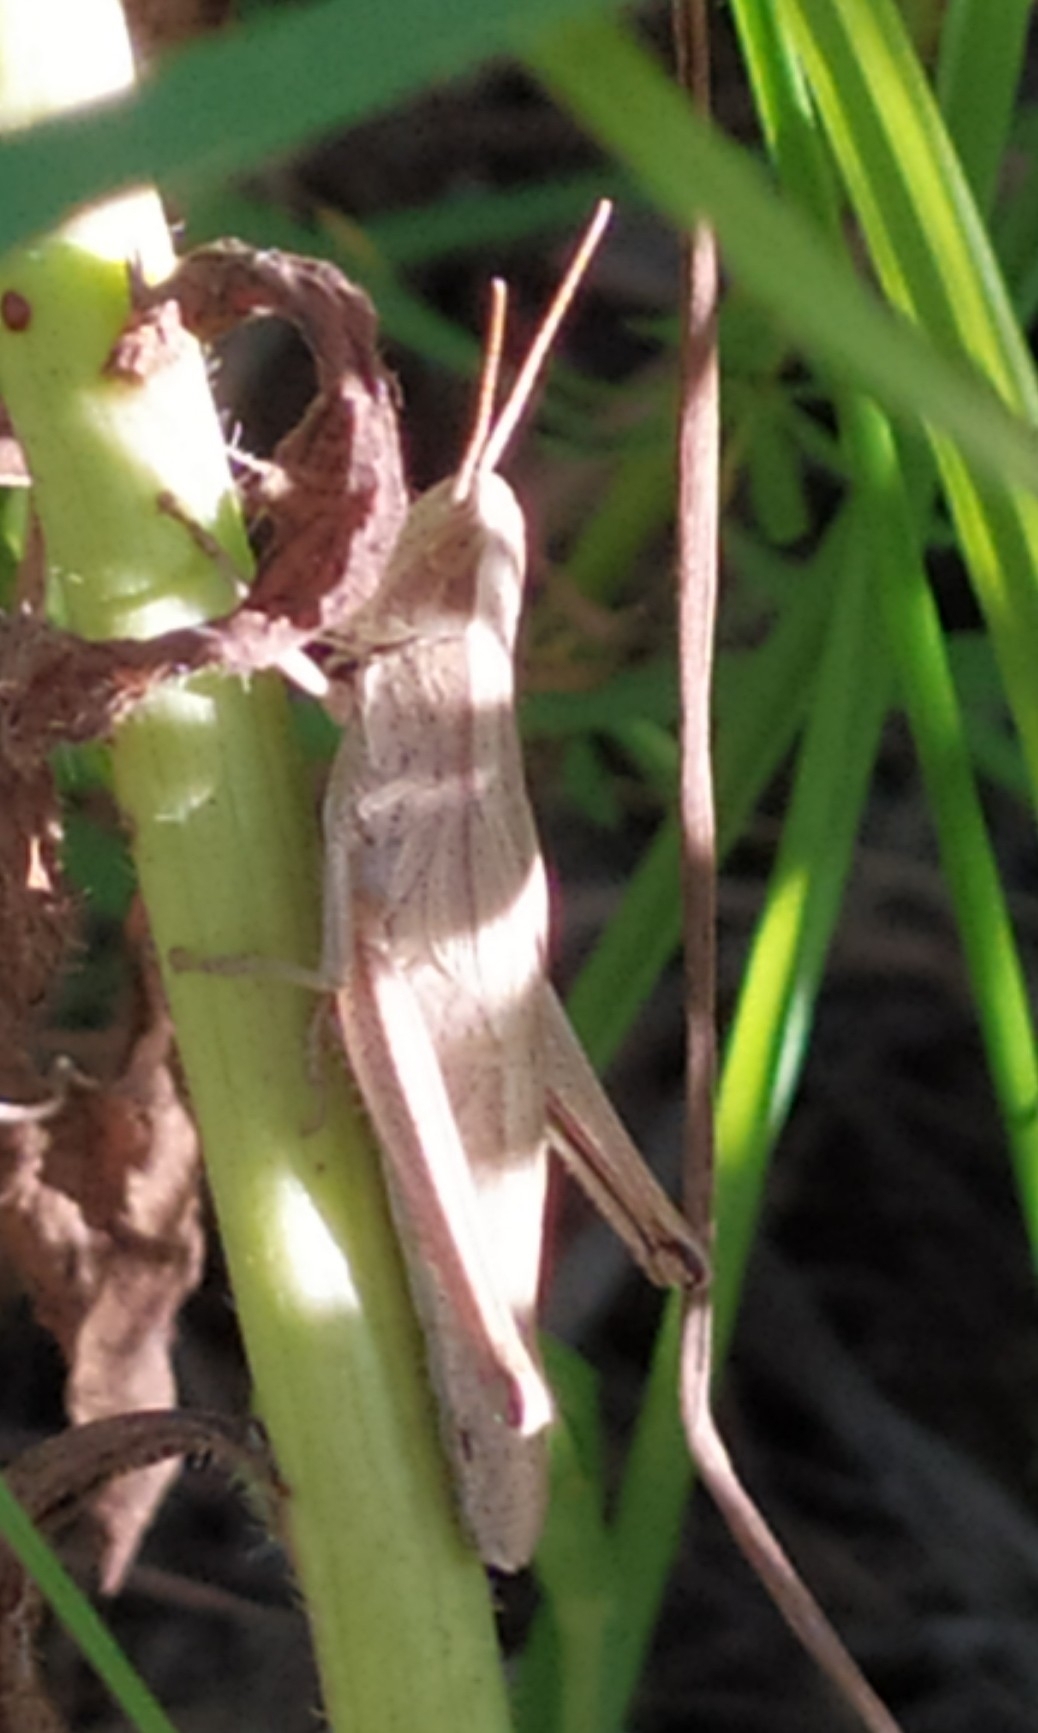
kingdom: Animalia
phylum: Arthropoda
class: Insecta
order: Orthoptera
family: Acrididae
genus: Chrysochraon
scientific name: Chrysochraon dispar
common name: Large gold grasshopper
